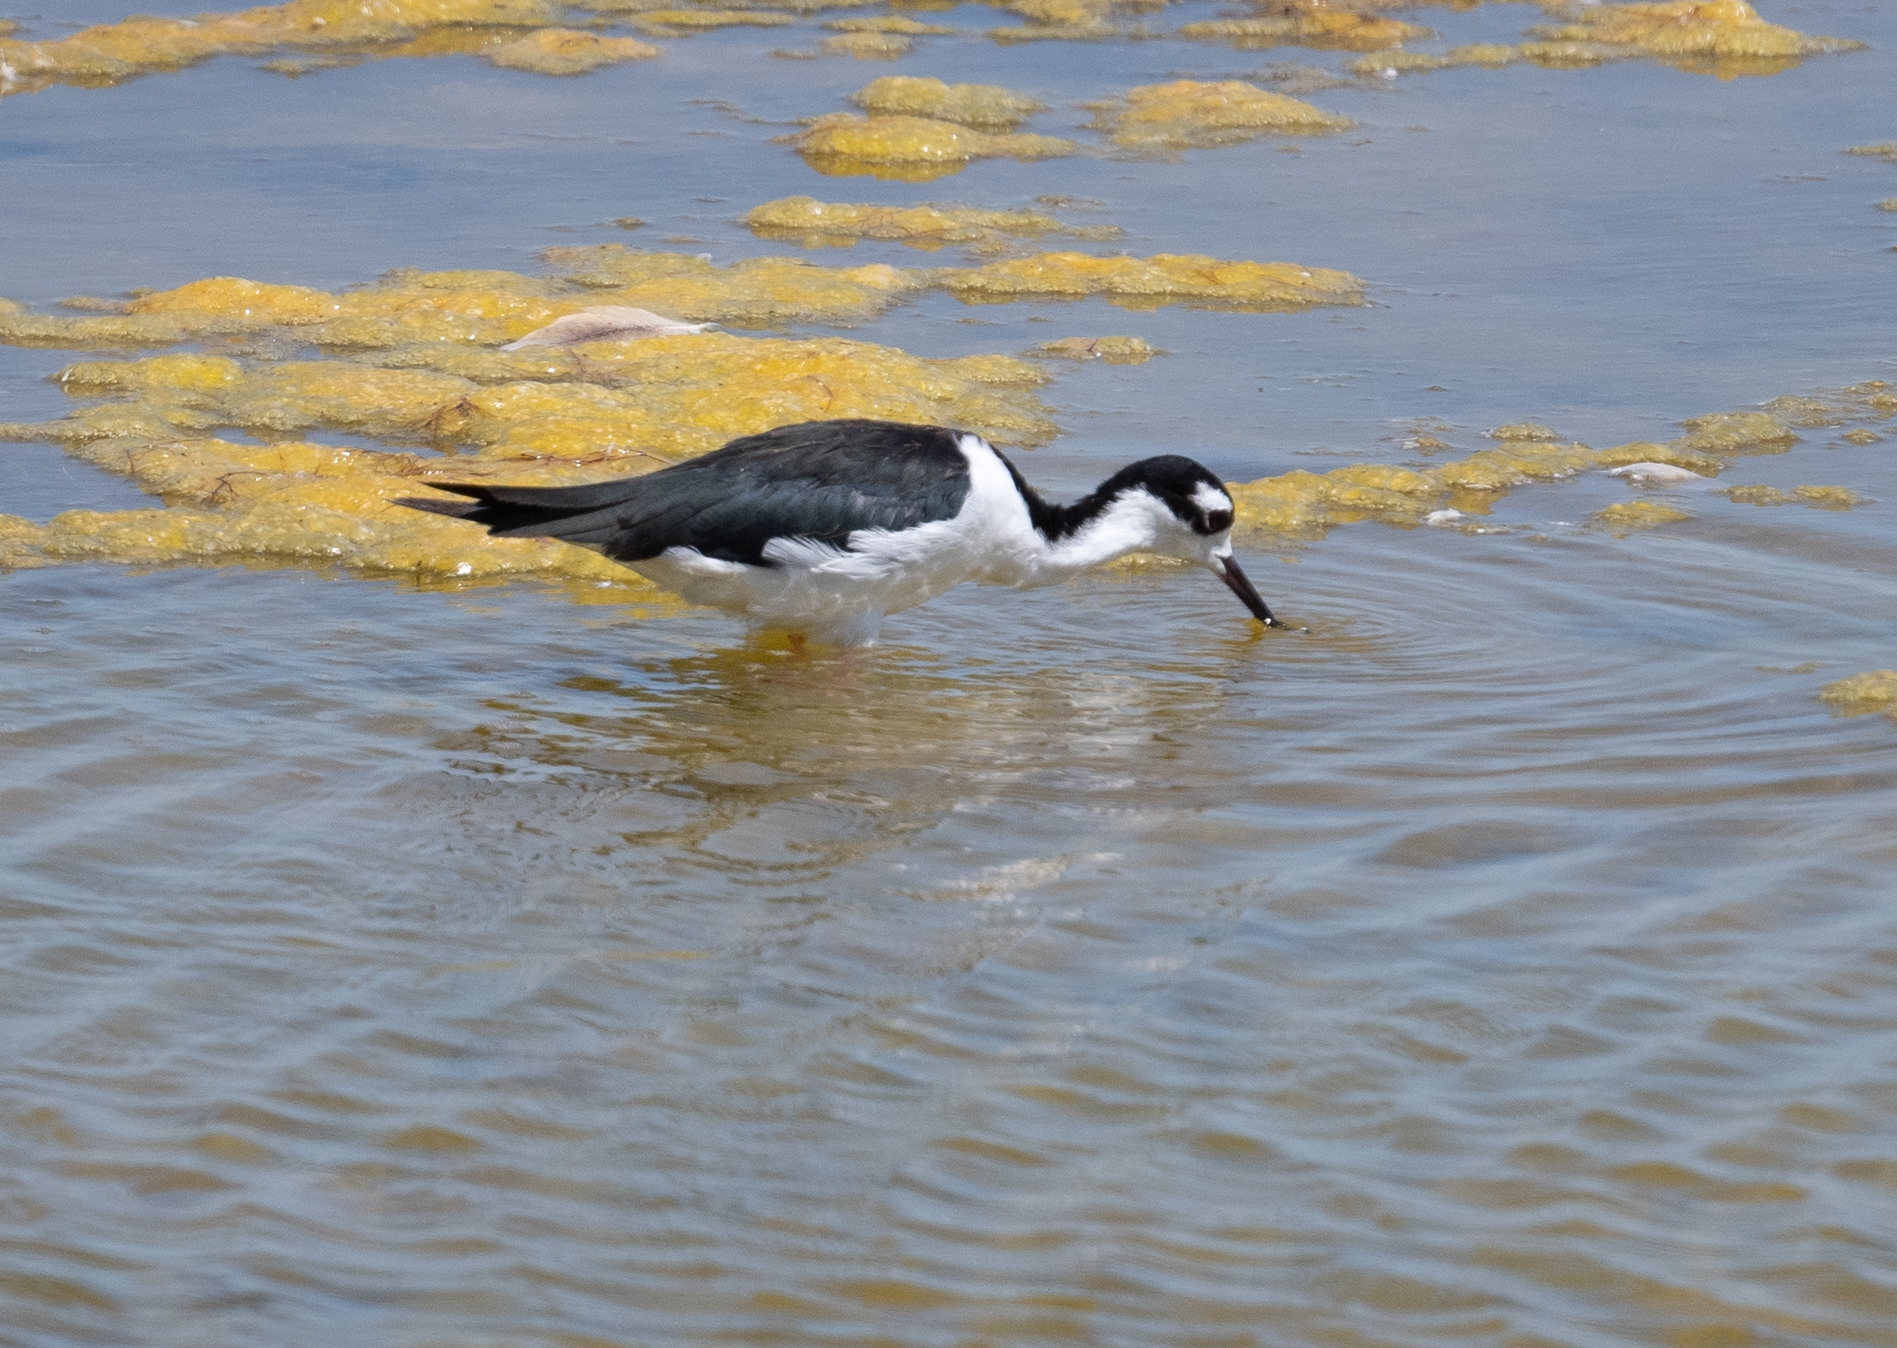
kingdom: Animalia
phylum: Chordata
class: Aves
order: Charadriiformes
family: Recurvirostridae
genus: Himantopus
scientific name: Himantopus mexicanus
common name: Black-necked stilt
